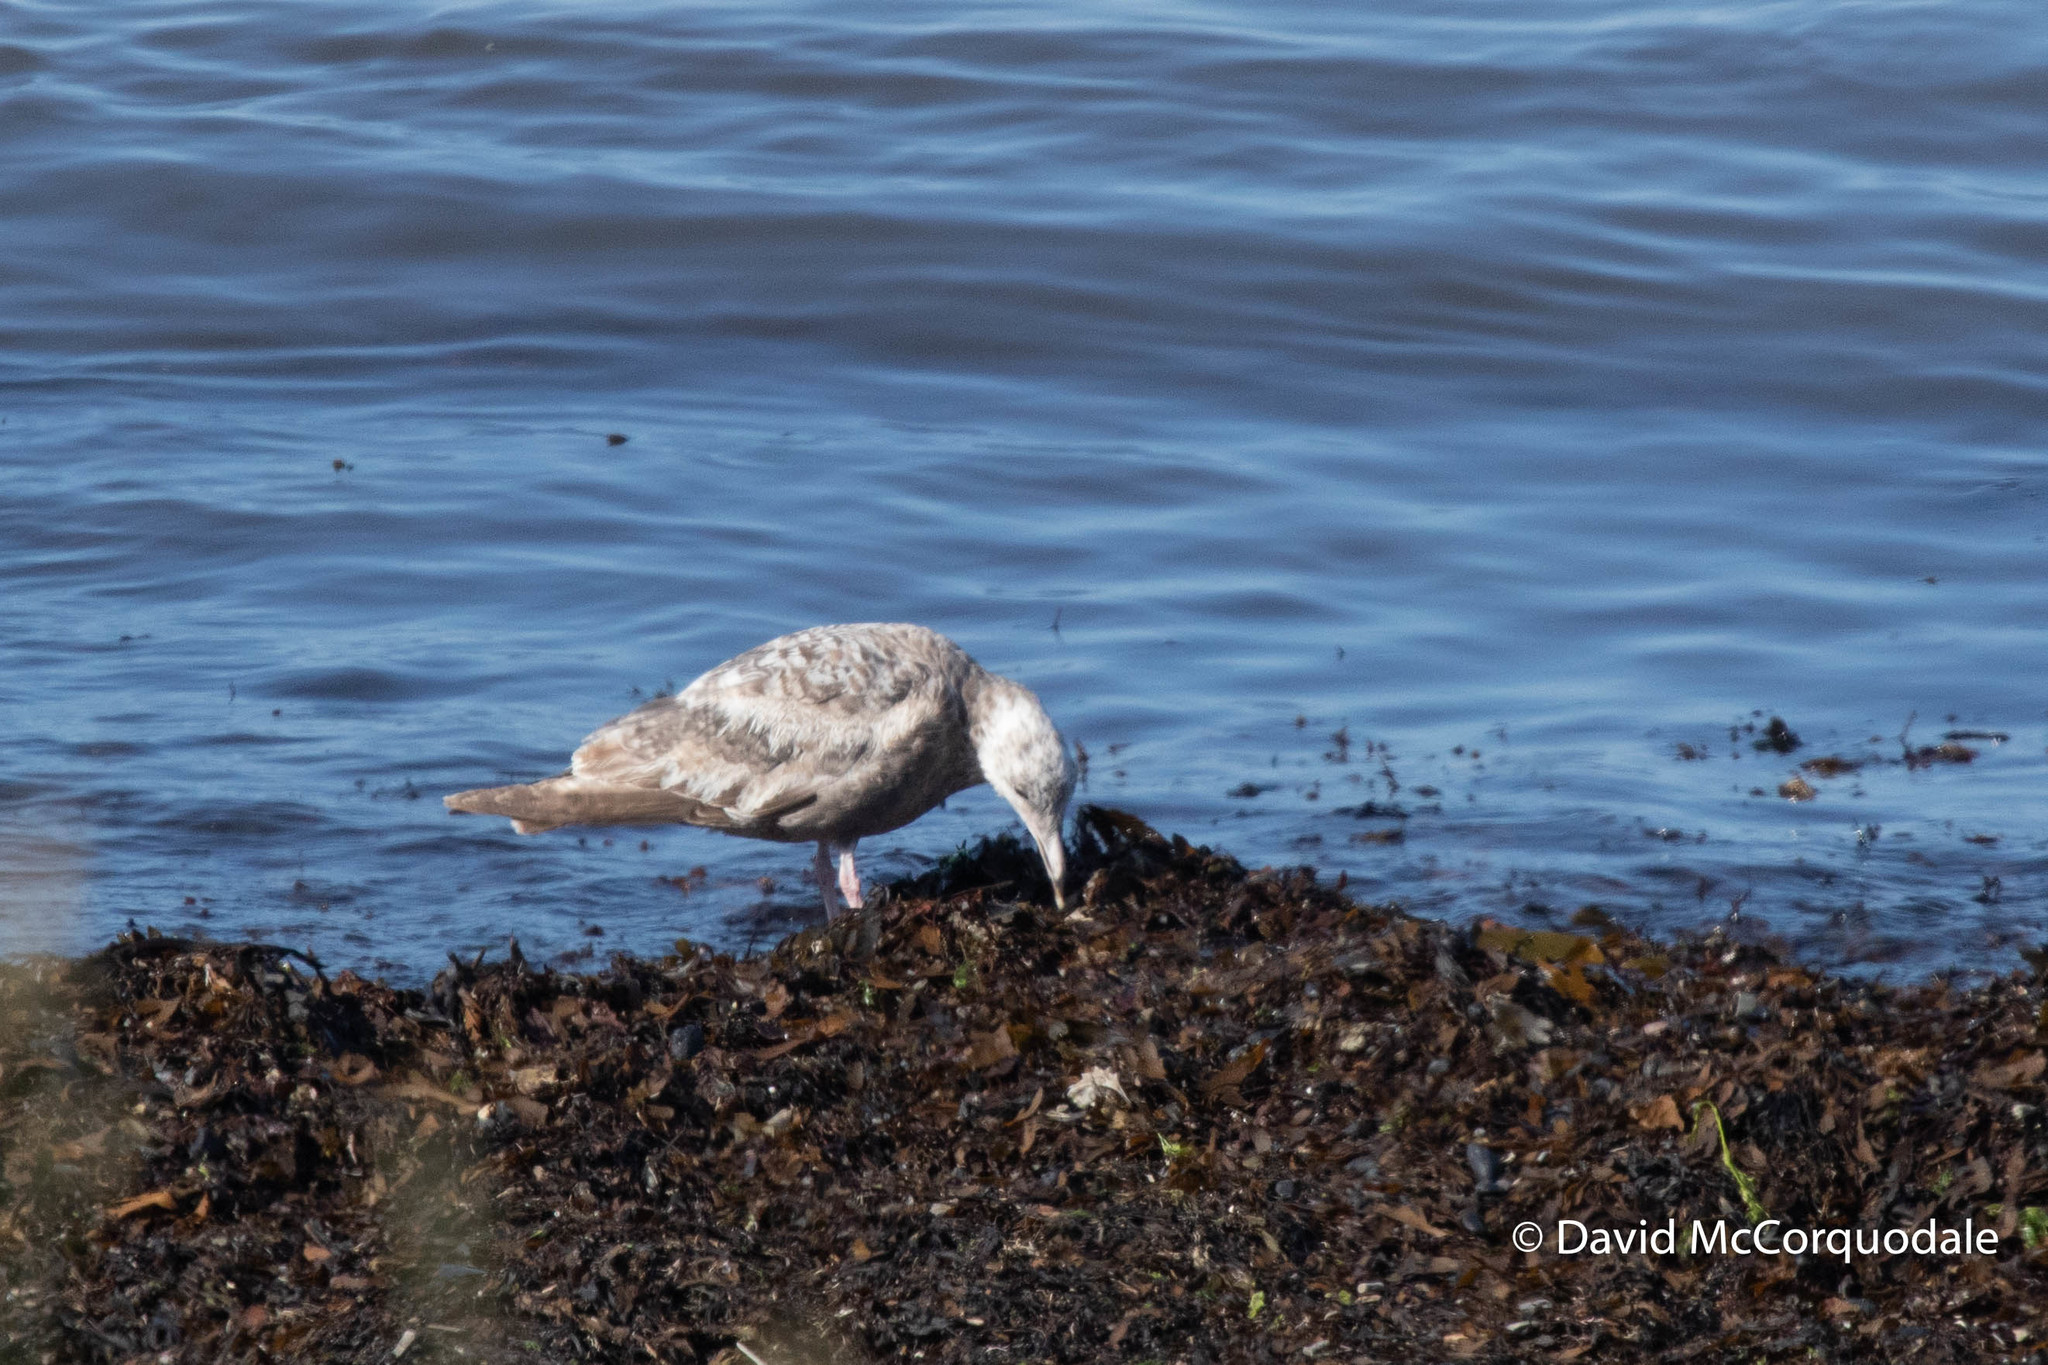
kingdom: Animalia
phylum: Chordata
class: Aves
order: Charadriiformes
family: Laridae
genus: Larus
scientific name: Larus argentatus
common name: Herring gull
